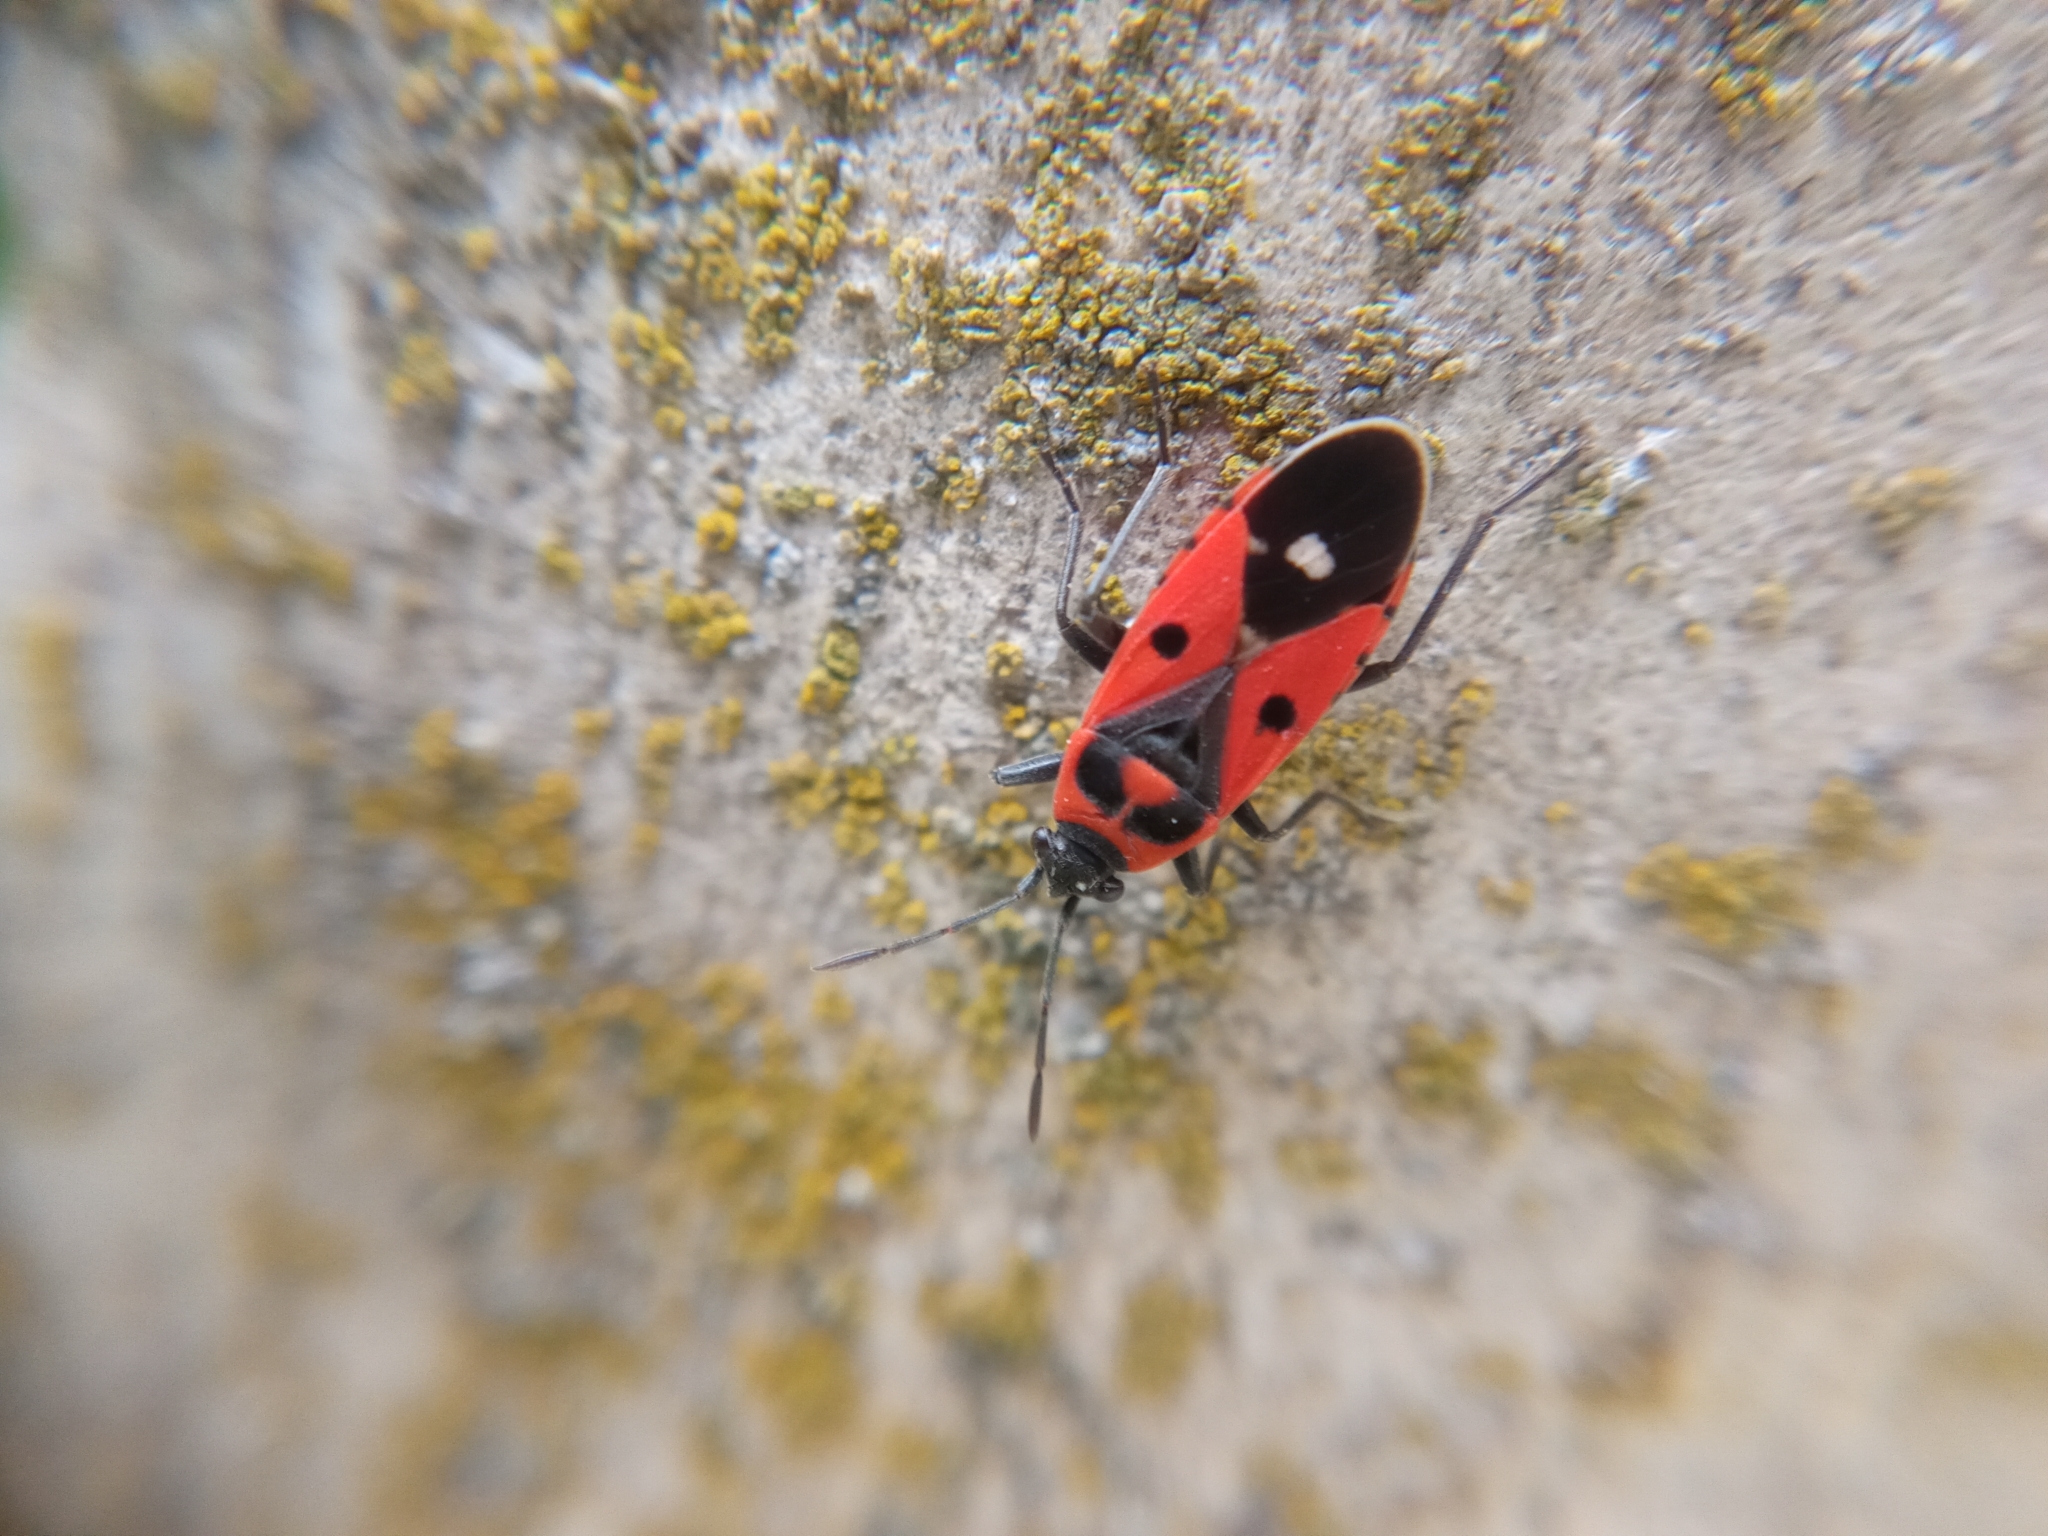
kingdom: Animalia
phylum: Arthropoda
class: Insecta
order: Hemiptera
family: Lygaeidae
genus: Melanocoryphus
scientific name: Melanocoryphus albomaculatus
